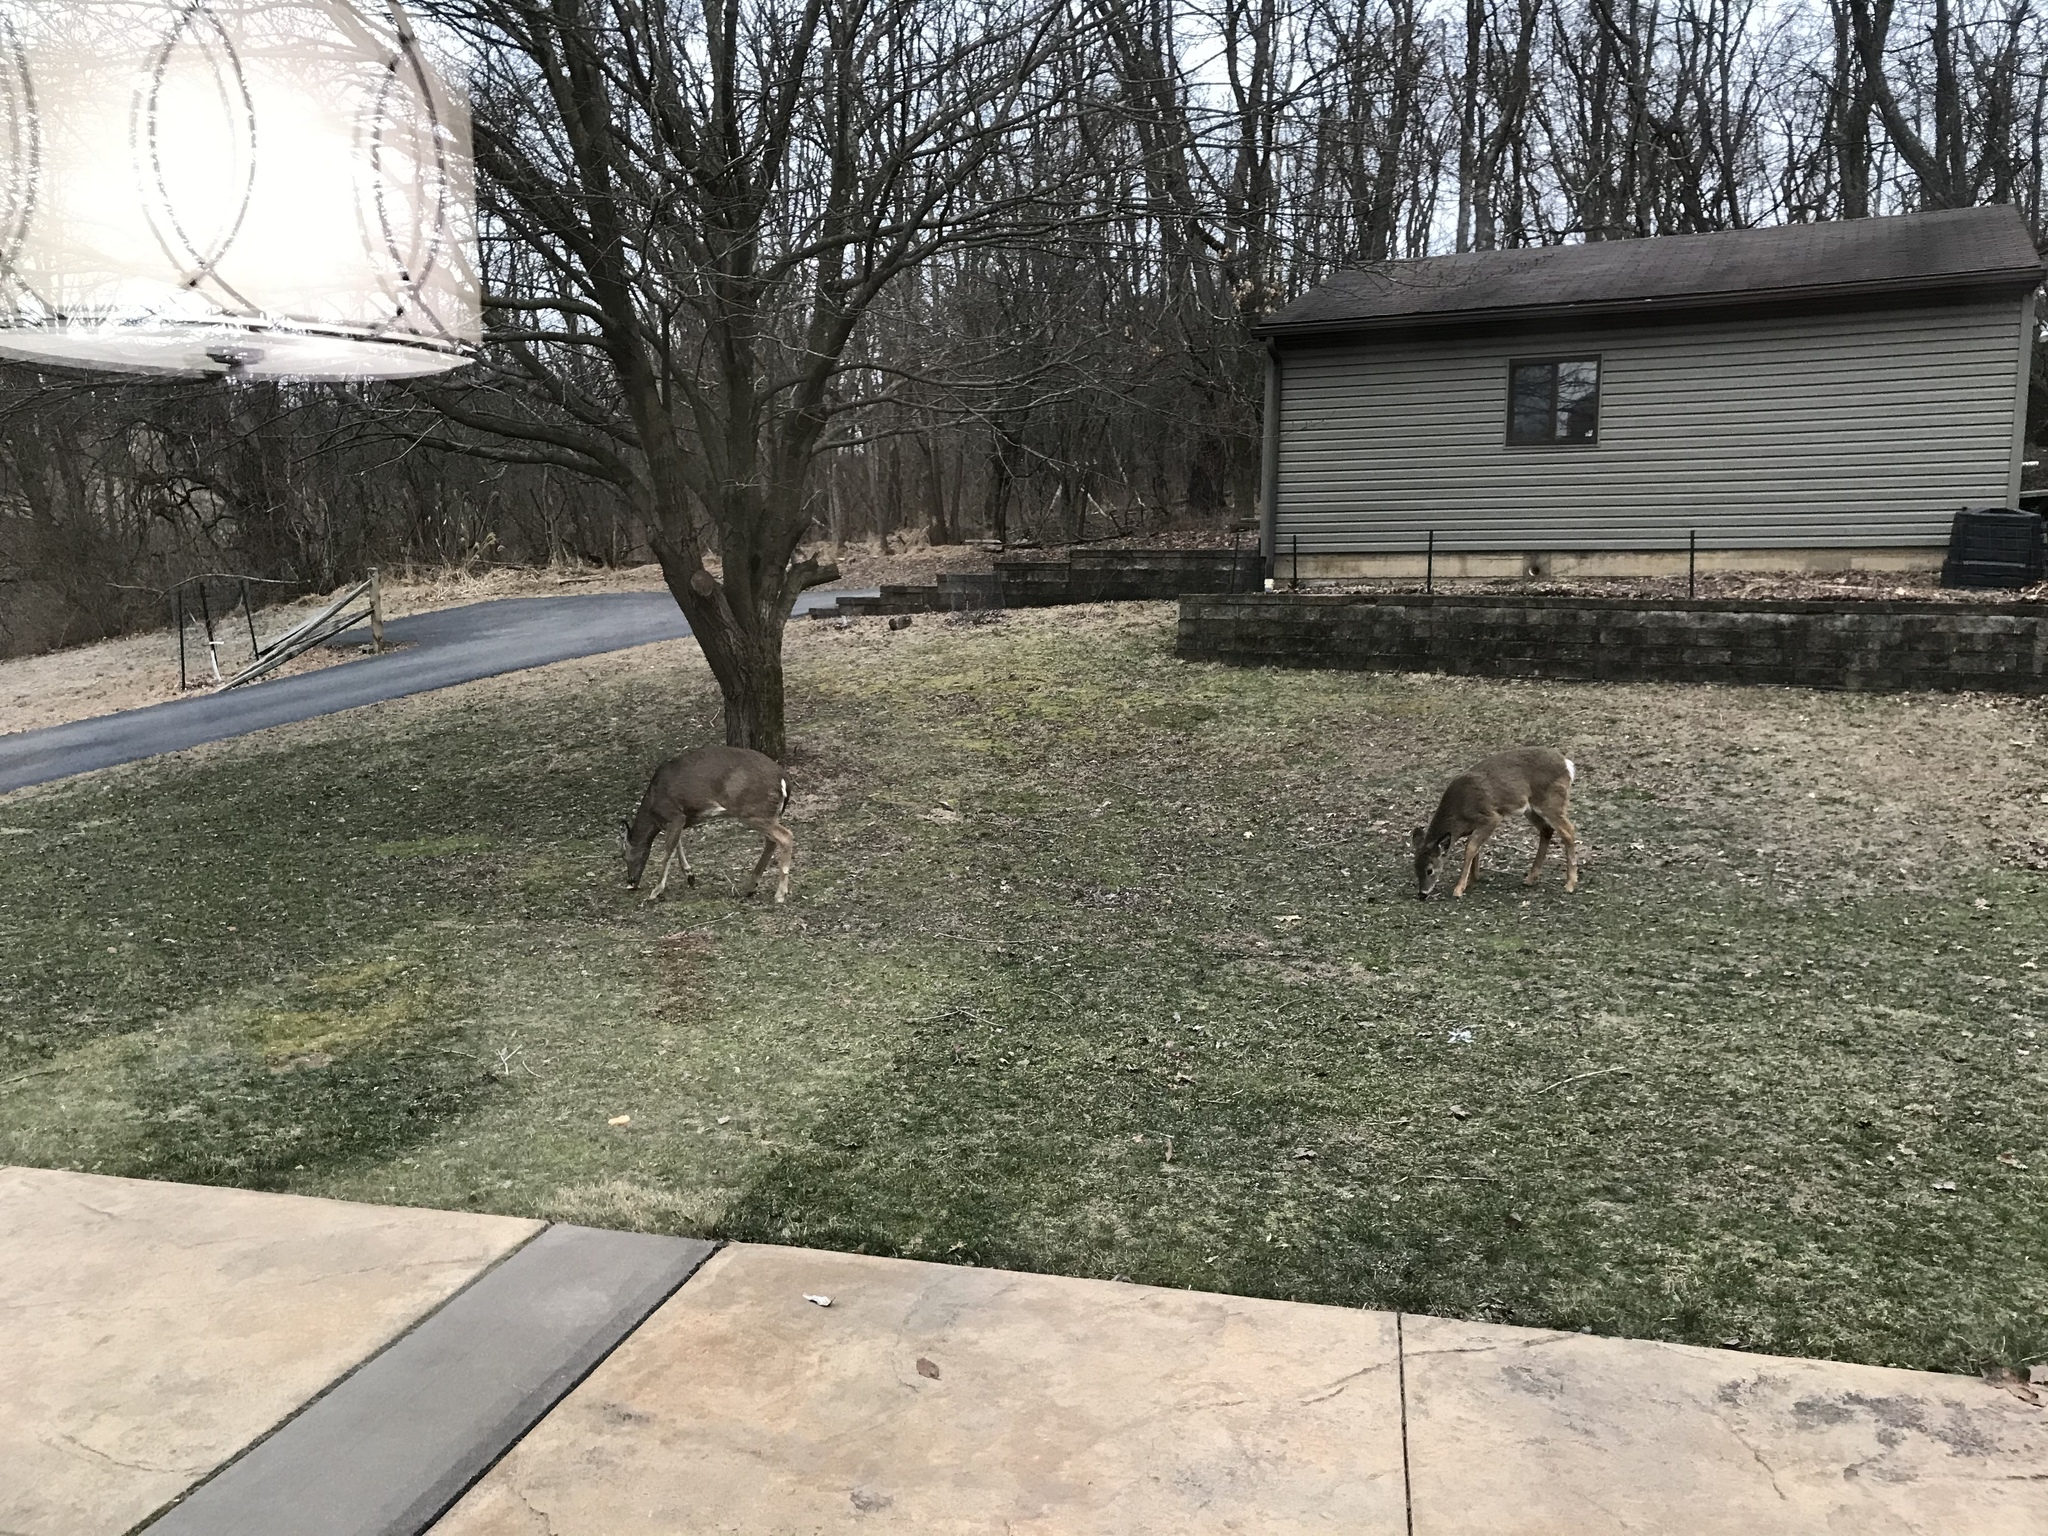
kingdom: Animalia
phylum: Chordata
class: Mammalia
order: Artiodactyla
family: Cervidae
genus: Odocoileus
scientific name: Odocoileus virginianus
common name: White-tailed deer
